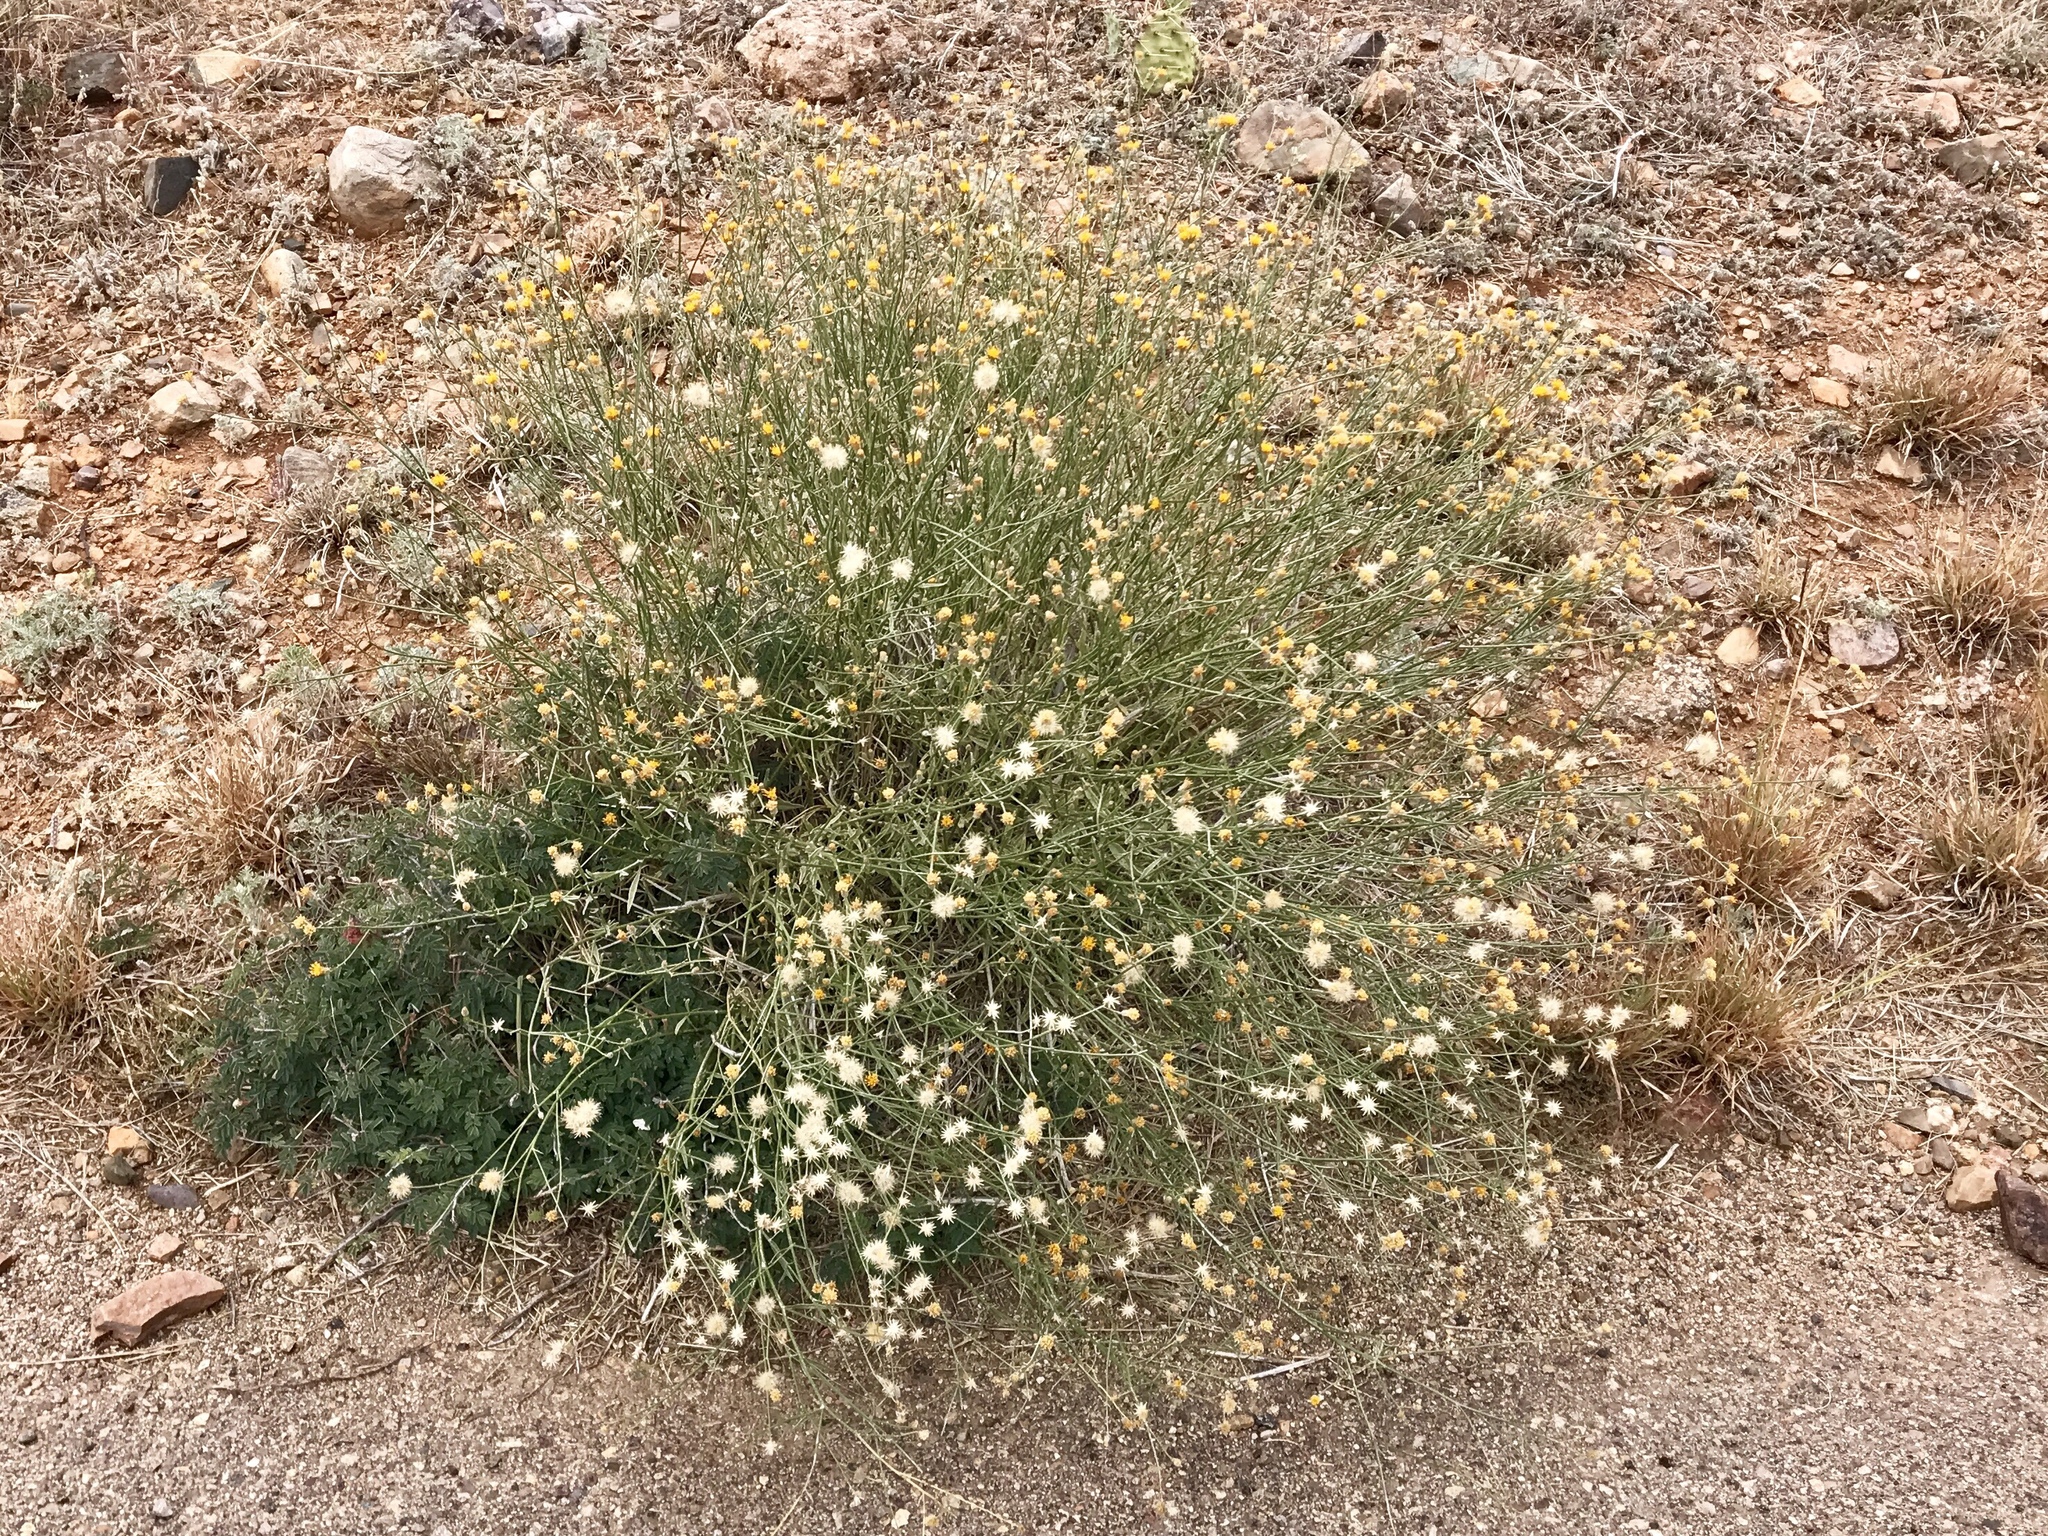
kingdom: Plantae
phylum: Tracheophyta
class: Magnoliopsida
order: Asterales
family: Asteraceae
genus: Bebbia
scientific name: Bebbia juncea
